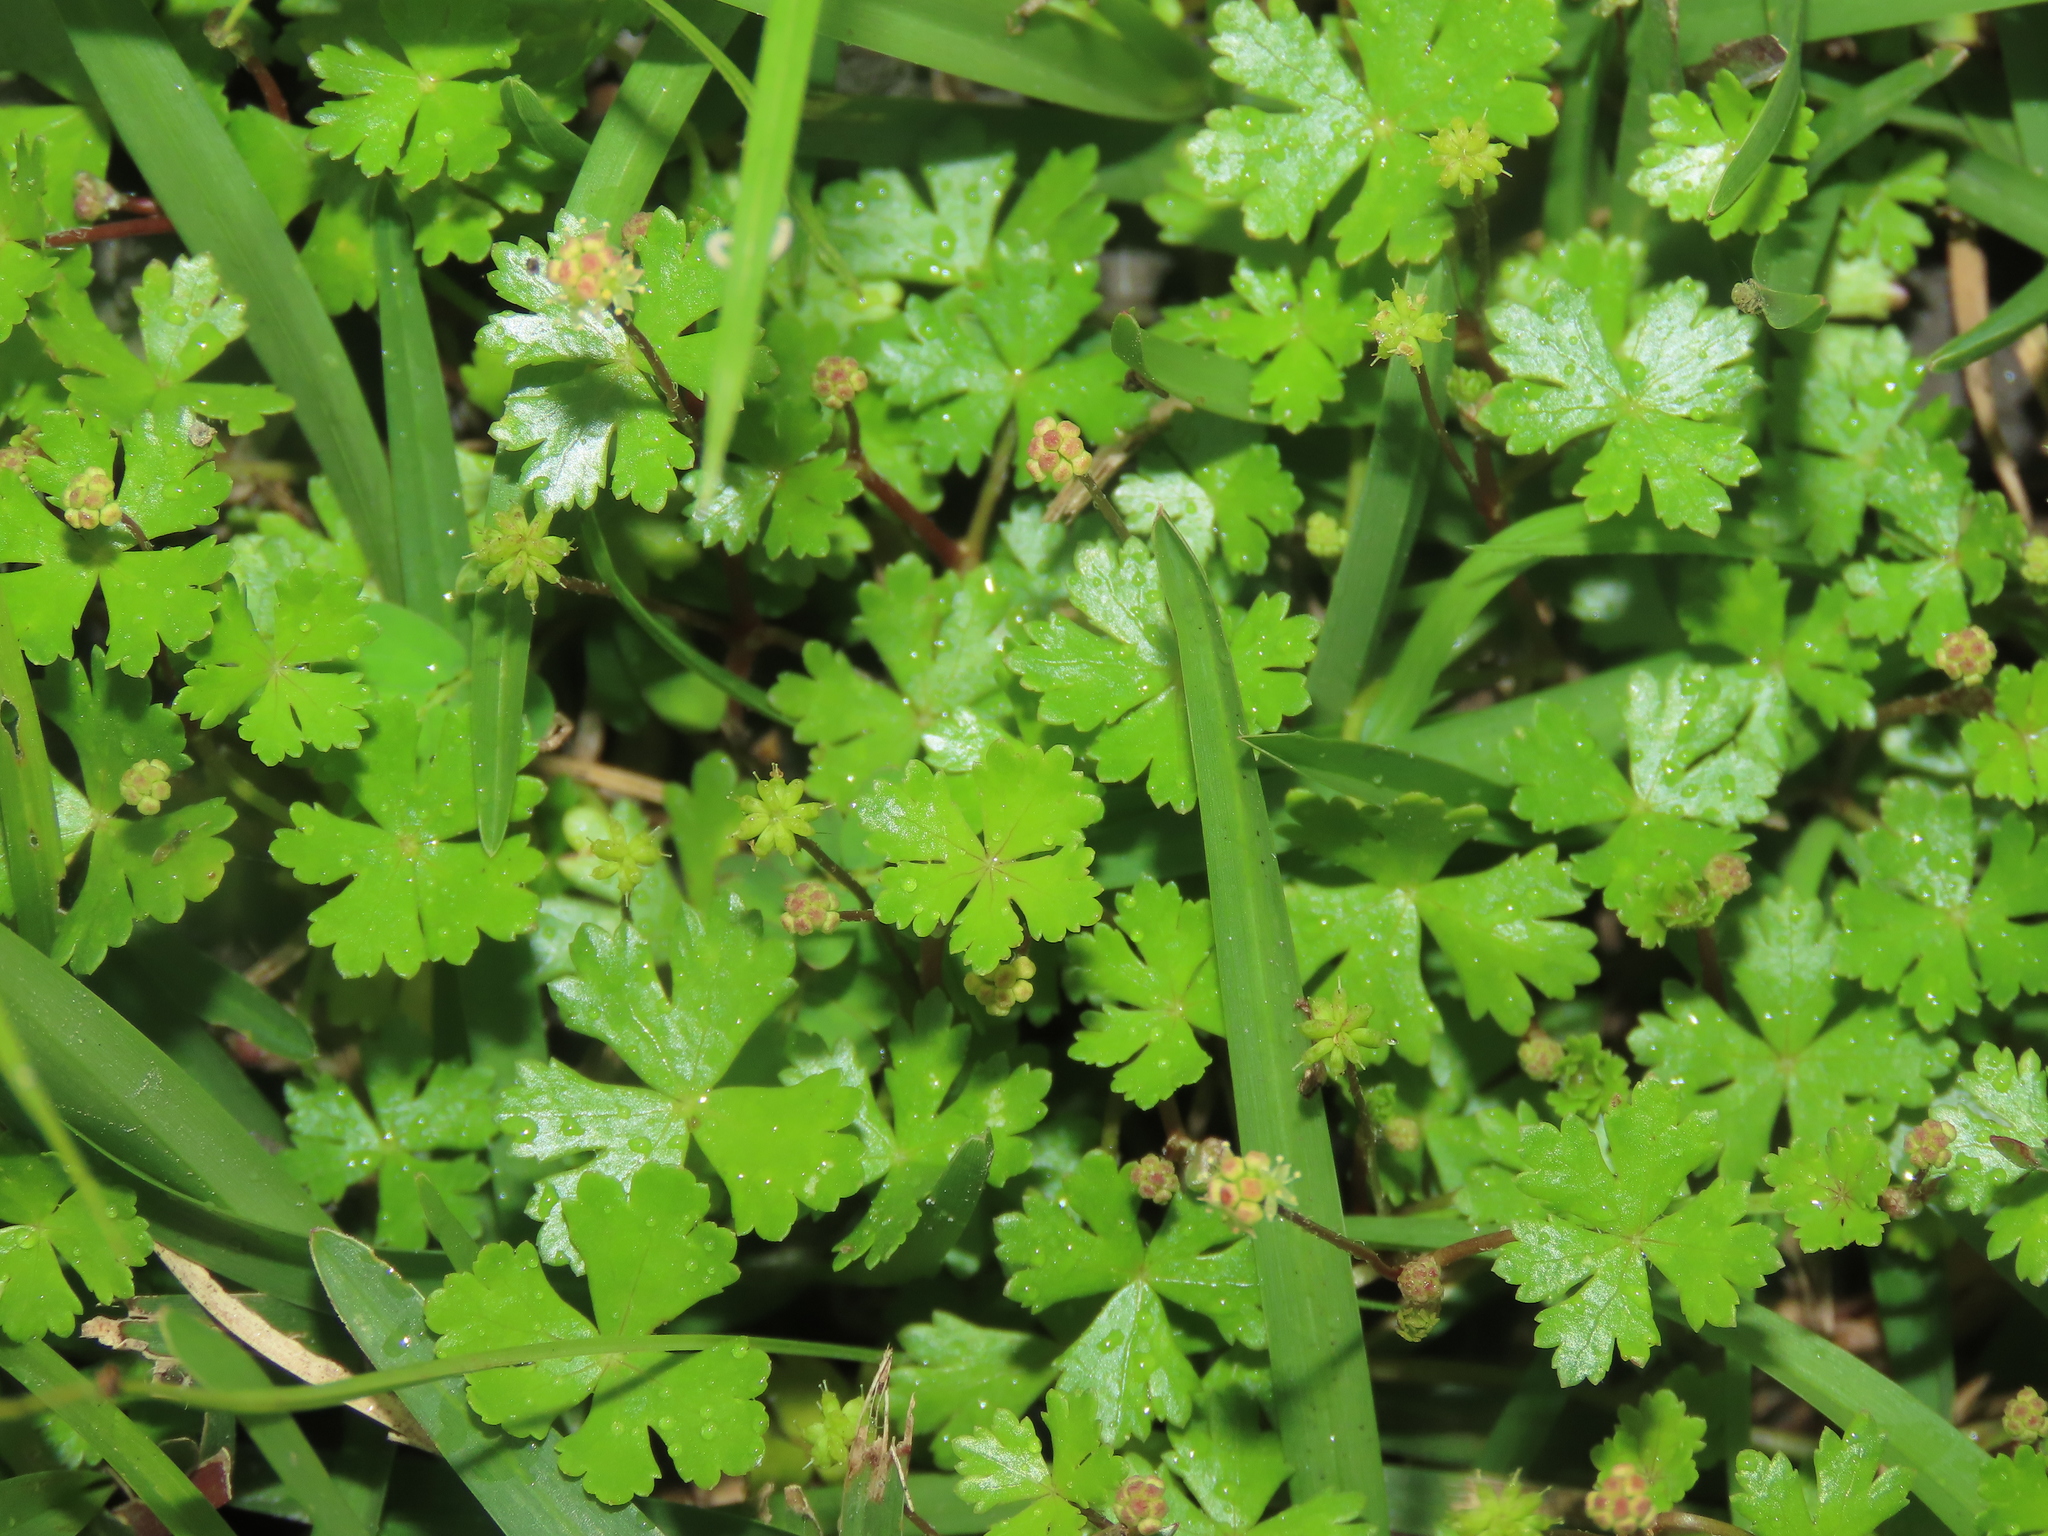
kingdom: Plantae
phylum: Tracheophyta
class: Magnoliopsida
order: Apiales
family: Araliaceae
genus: Hydrocotyle
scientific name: Hydrocotyle batrachium
